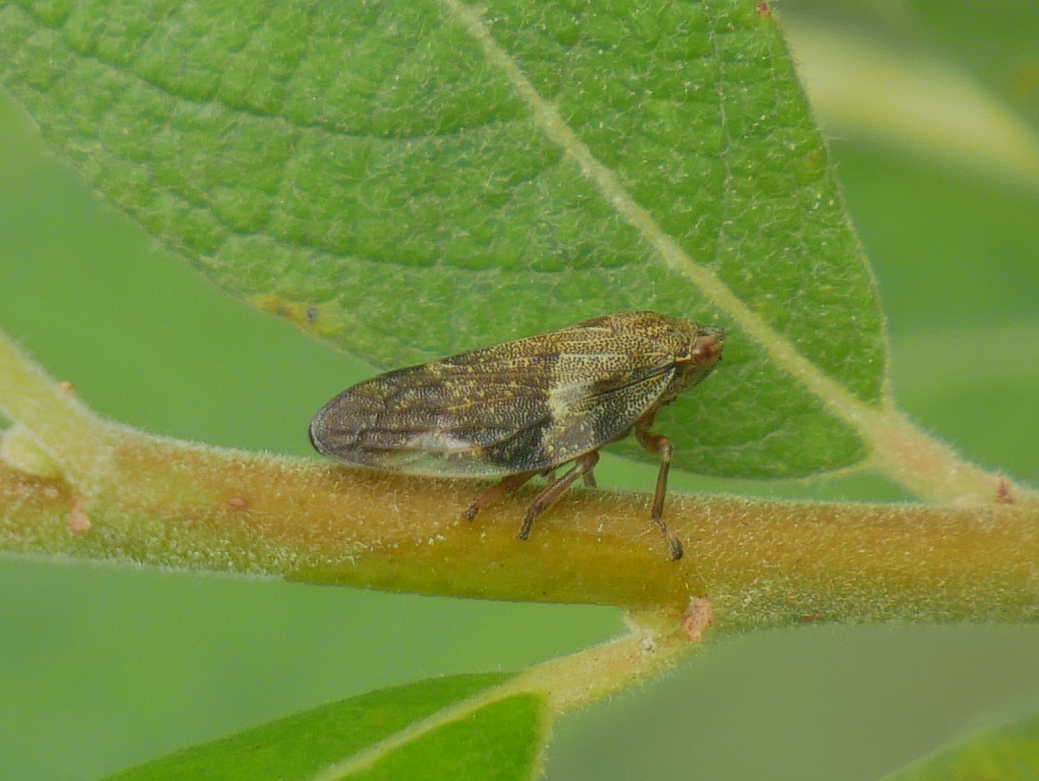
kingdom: Animalia
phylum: Arthropoda
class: Insecta
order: Hemiptera
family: Aphrophoridae
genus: Aphrophora
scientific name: Aphrophora alni
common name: European alder spittlebug
